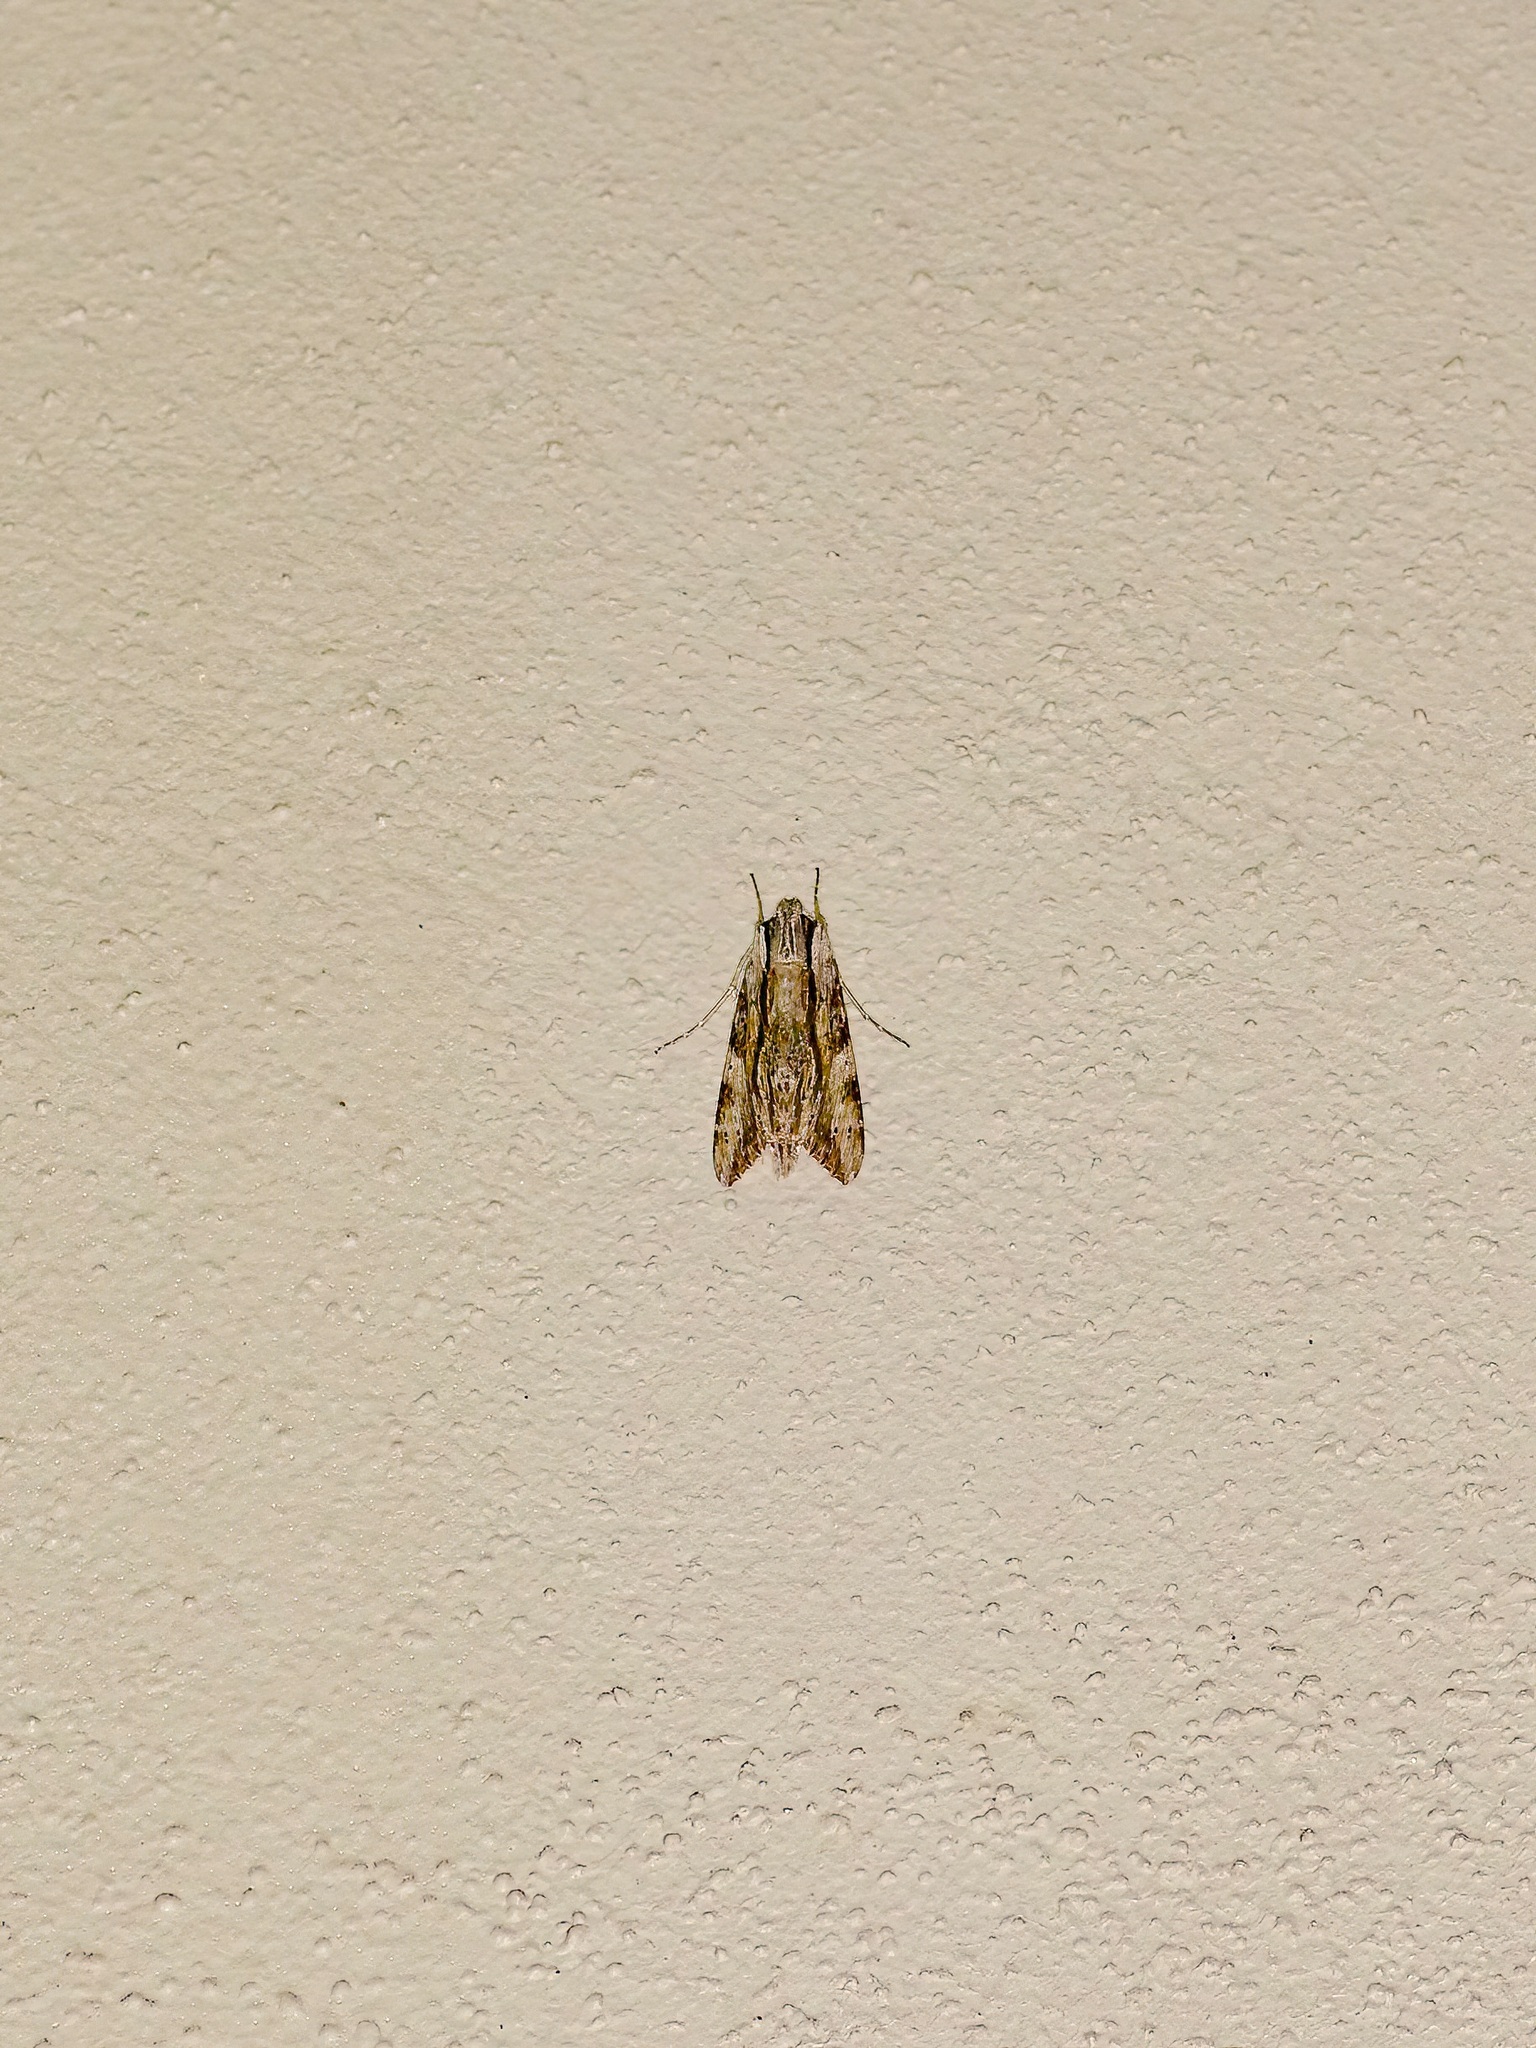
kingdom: Animalia
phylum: Arthropoda
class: Insecta
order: Lepidoptera
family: Sphingidae
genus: Erinnyis
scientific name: Erinnyis obscura
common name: Obscure sphinx
